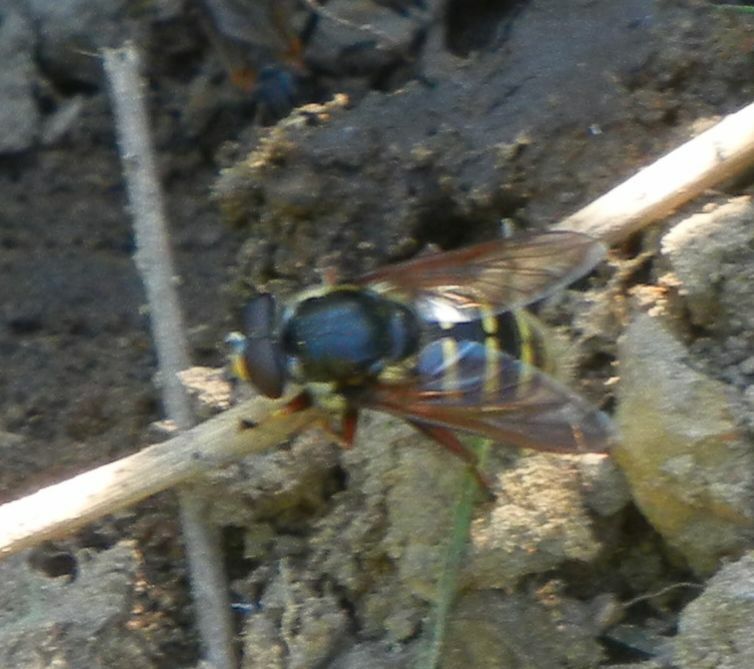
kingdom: Animalia
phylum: Arthropoda
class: Insecta
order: Diptera
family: Syrphidae
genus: Sericomyia
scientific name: Sericomyia silentis
